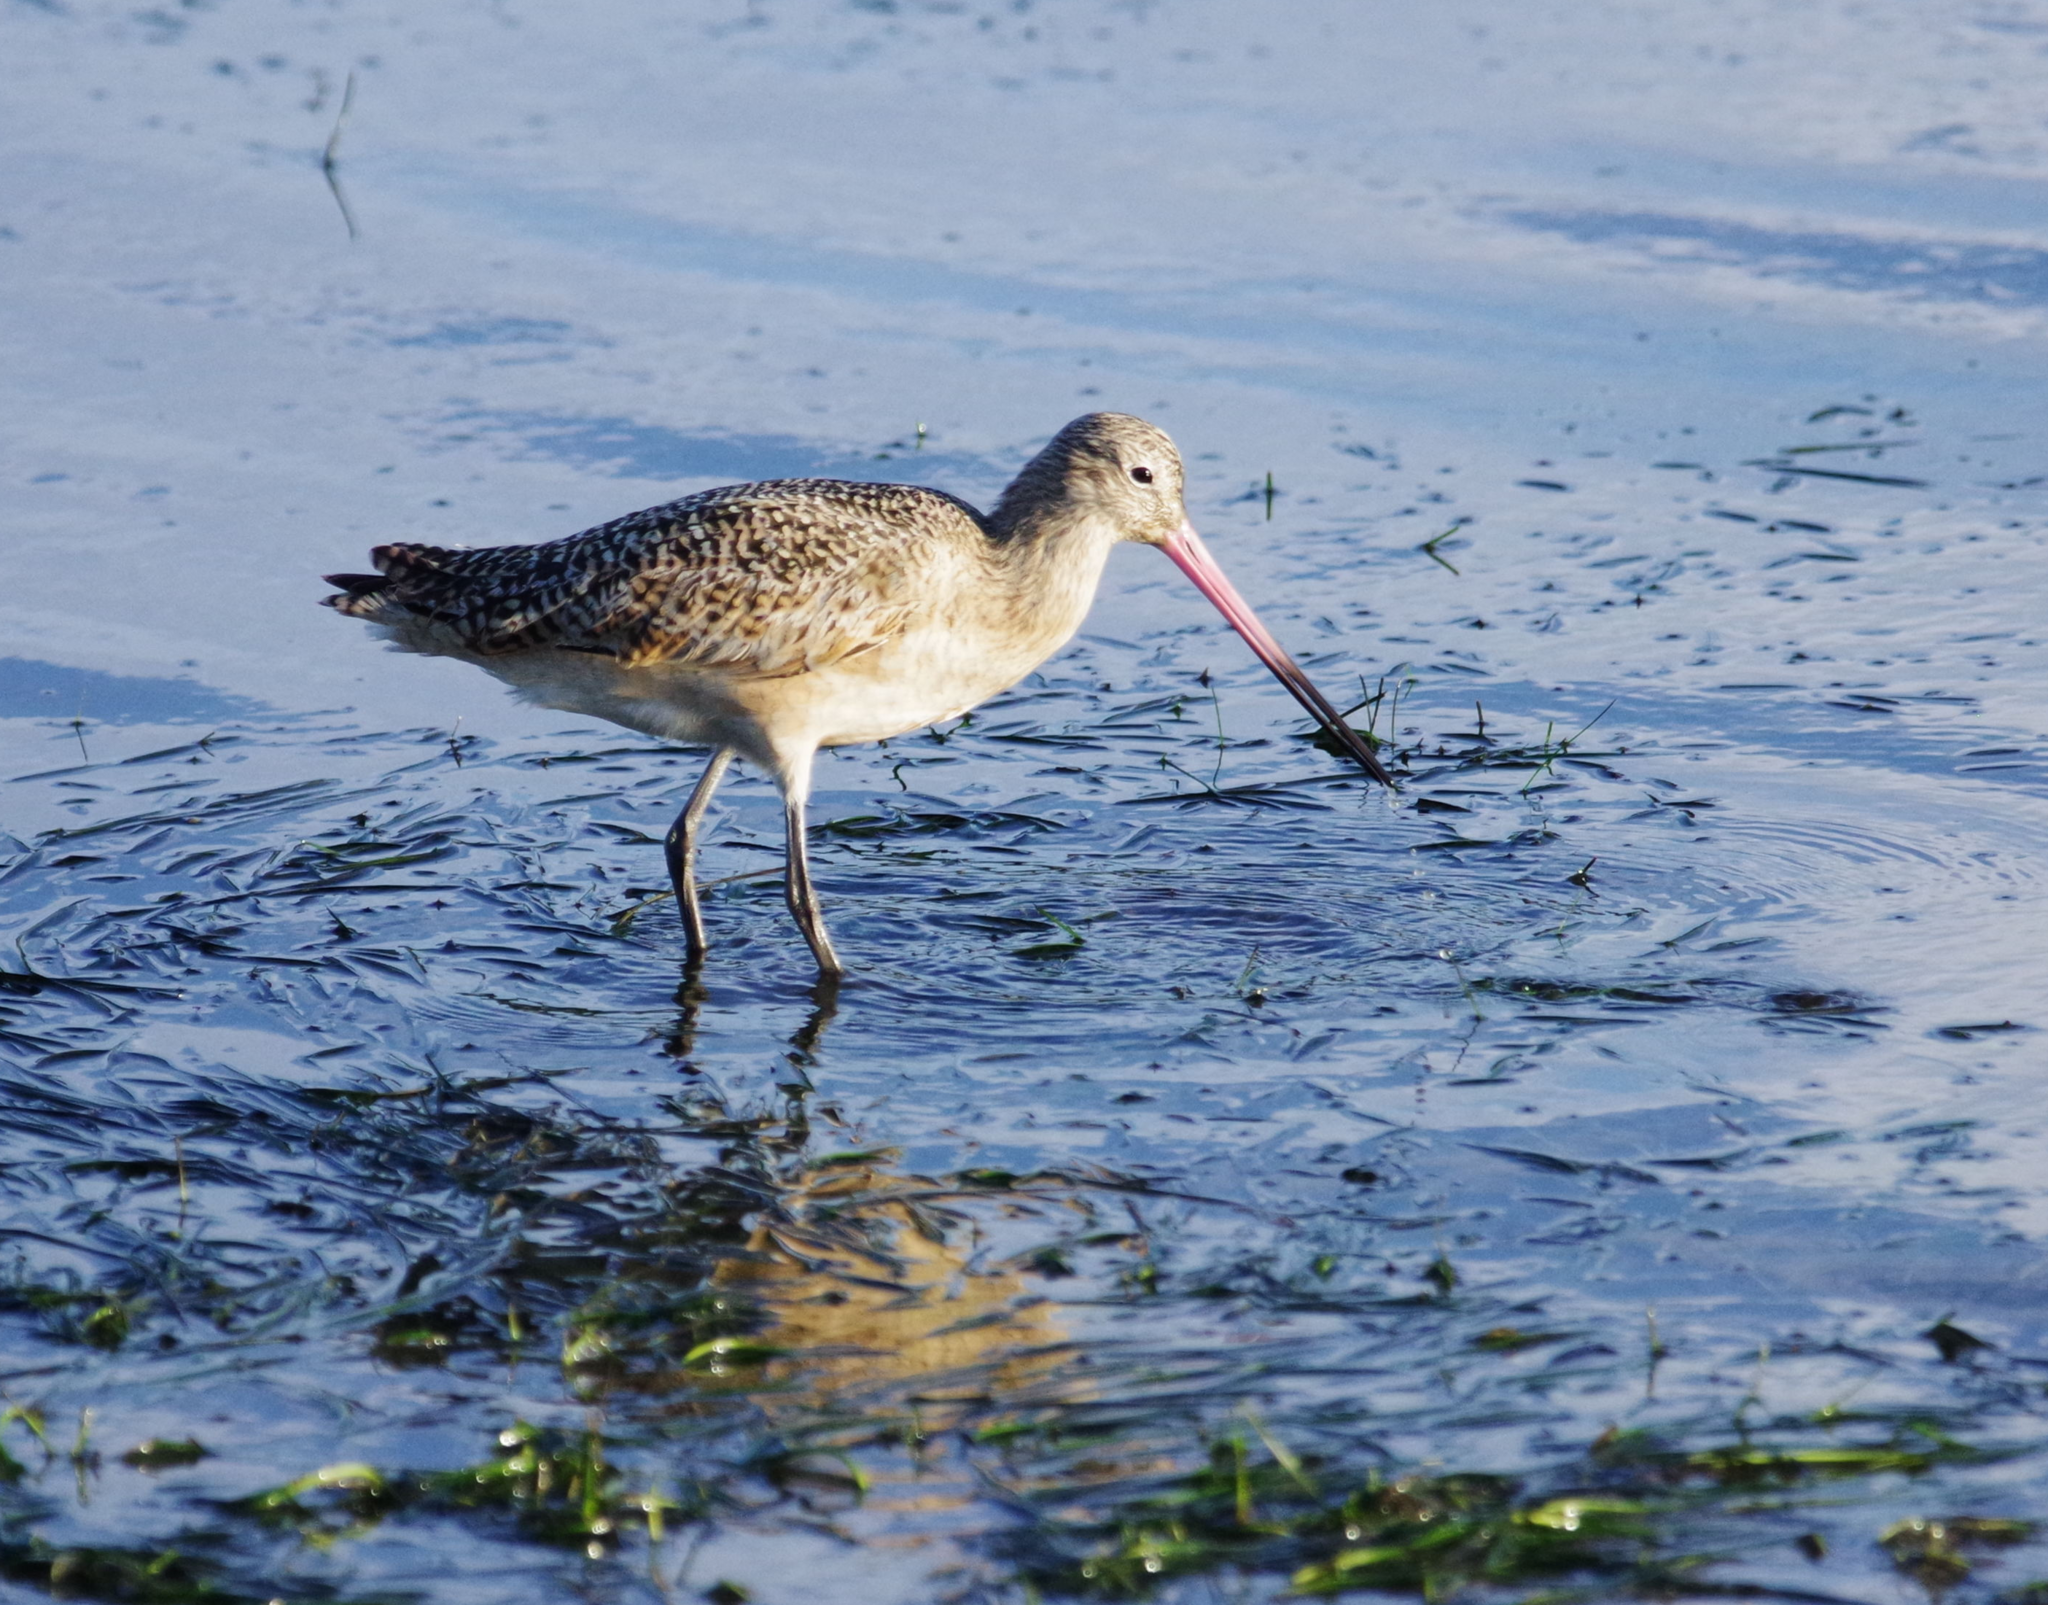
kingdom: Animalia
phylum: Chordata
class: Aves
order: Charadriiformes
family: Scolopacidae
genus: Limosa
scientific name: Limosa fedoa
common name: Marbled godwit
